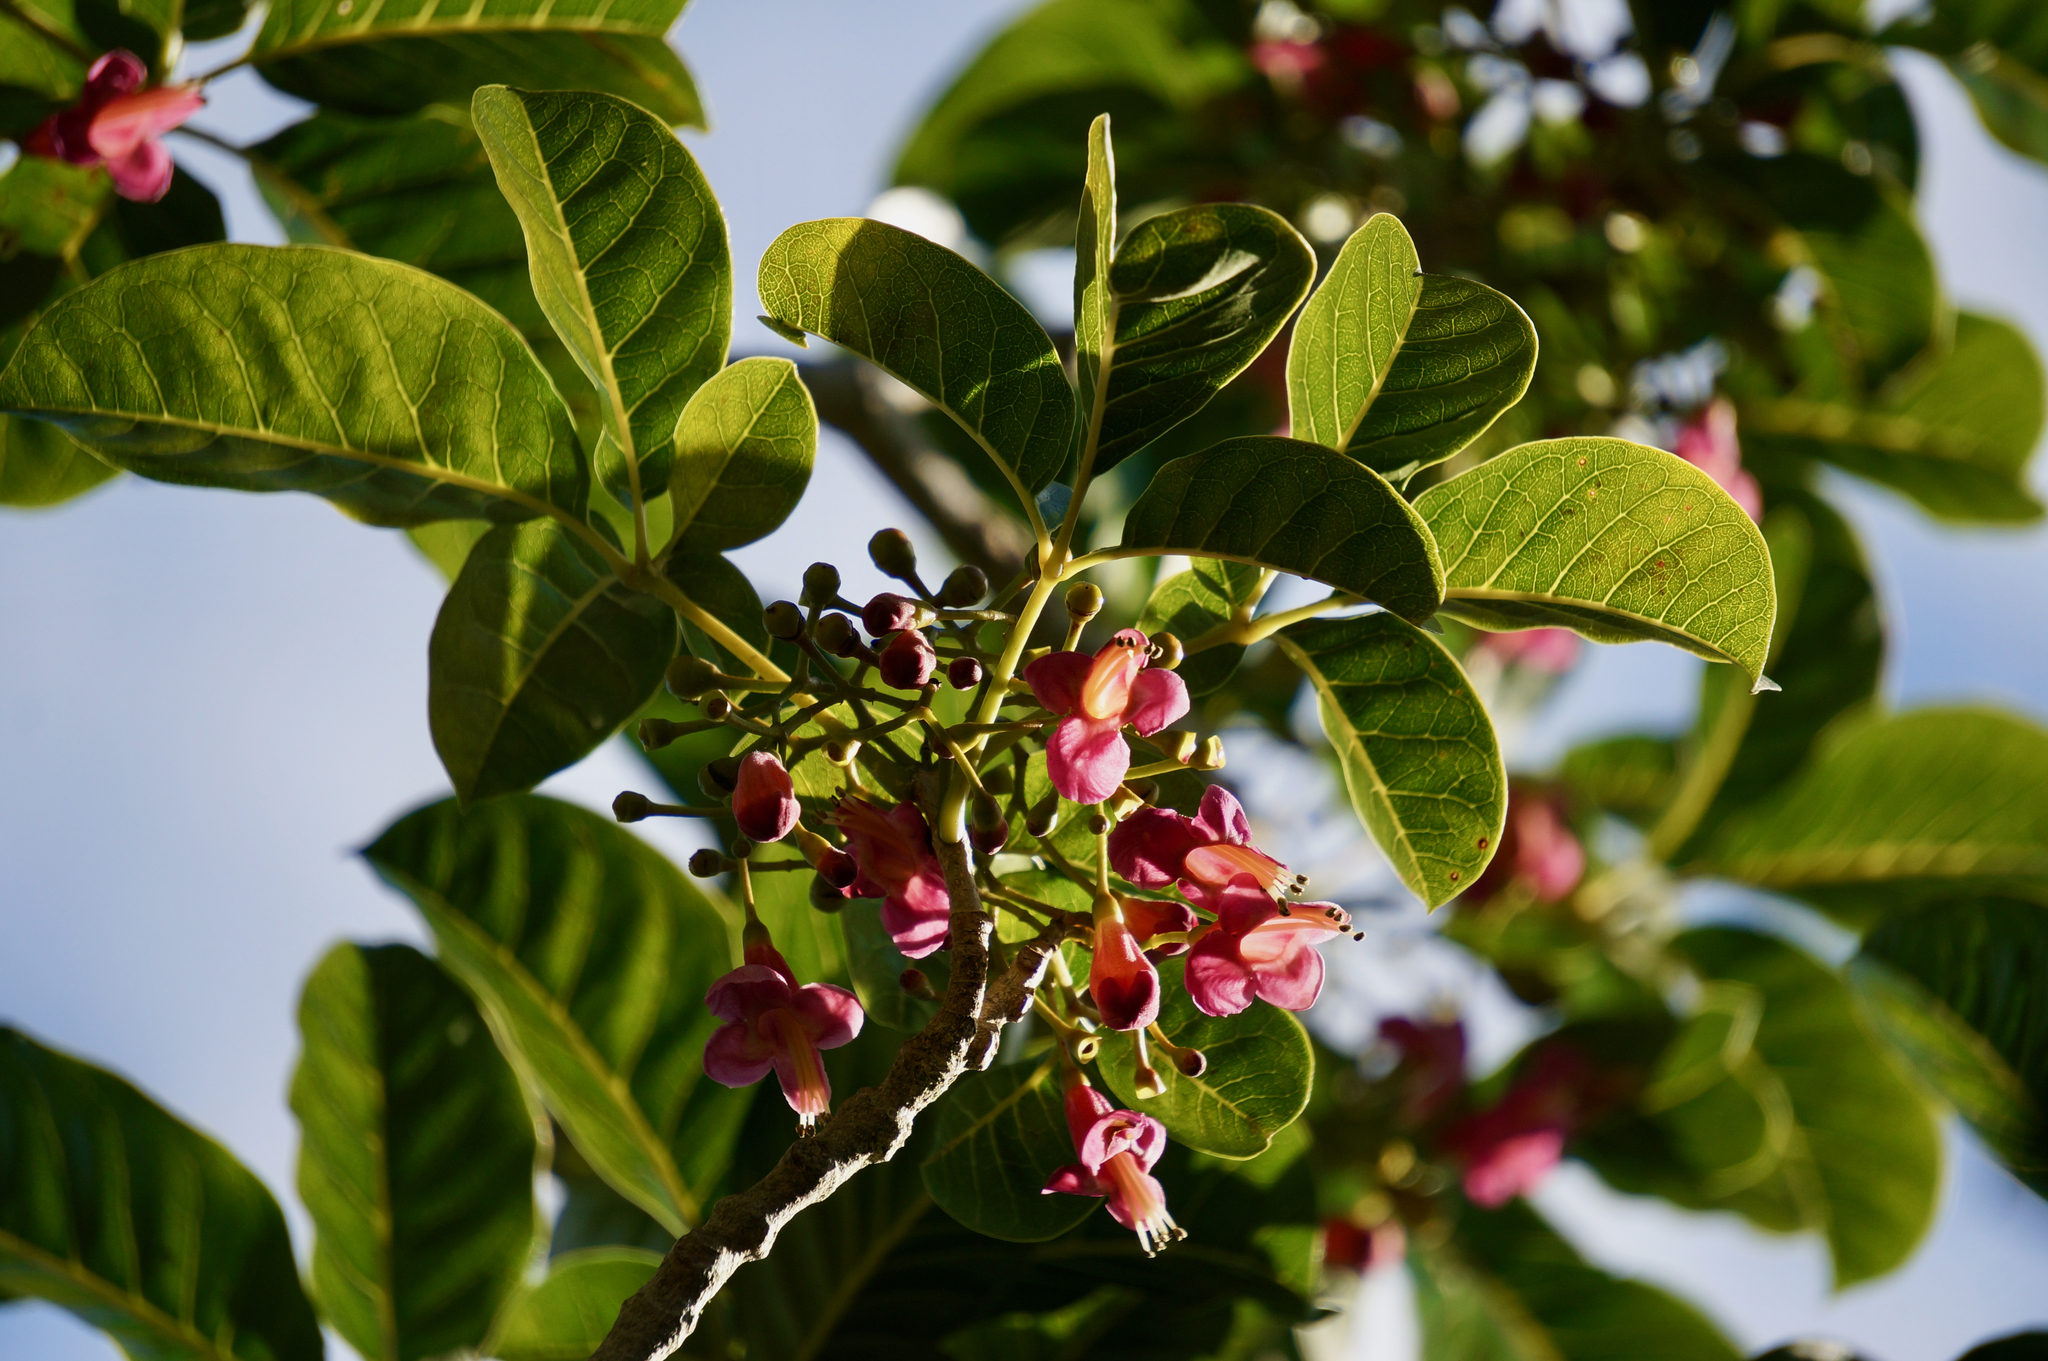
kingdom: Plantae
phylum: Tracheophyta
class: Magnoliopsida
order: Lamiales
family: Lamiaceae
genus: Vitex
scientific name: Vitex lucens
